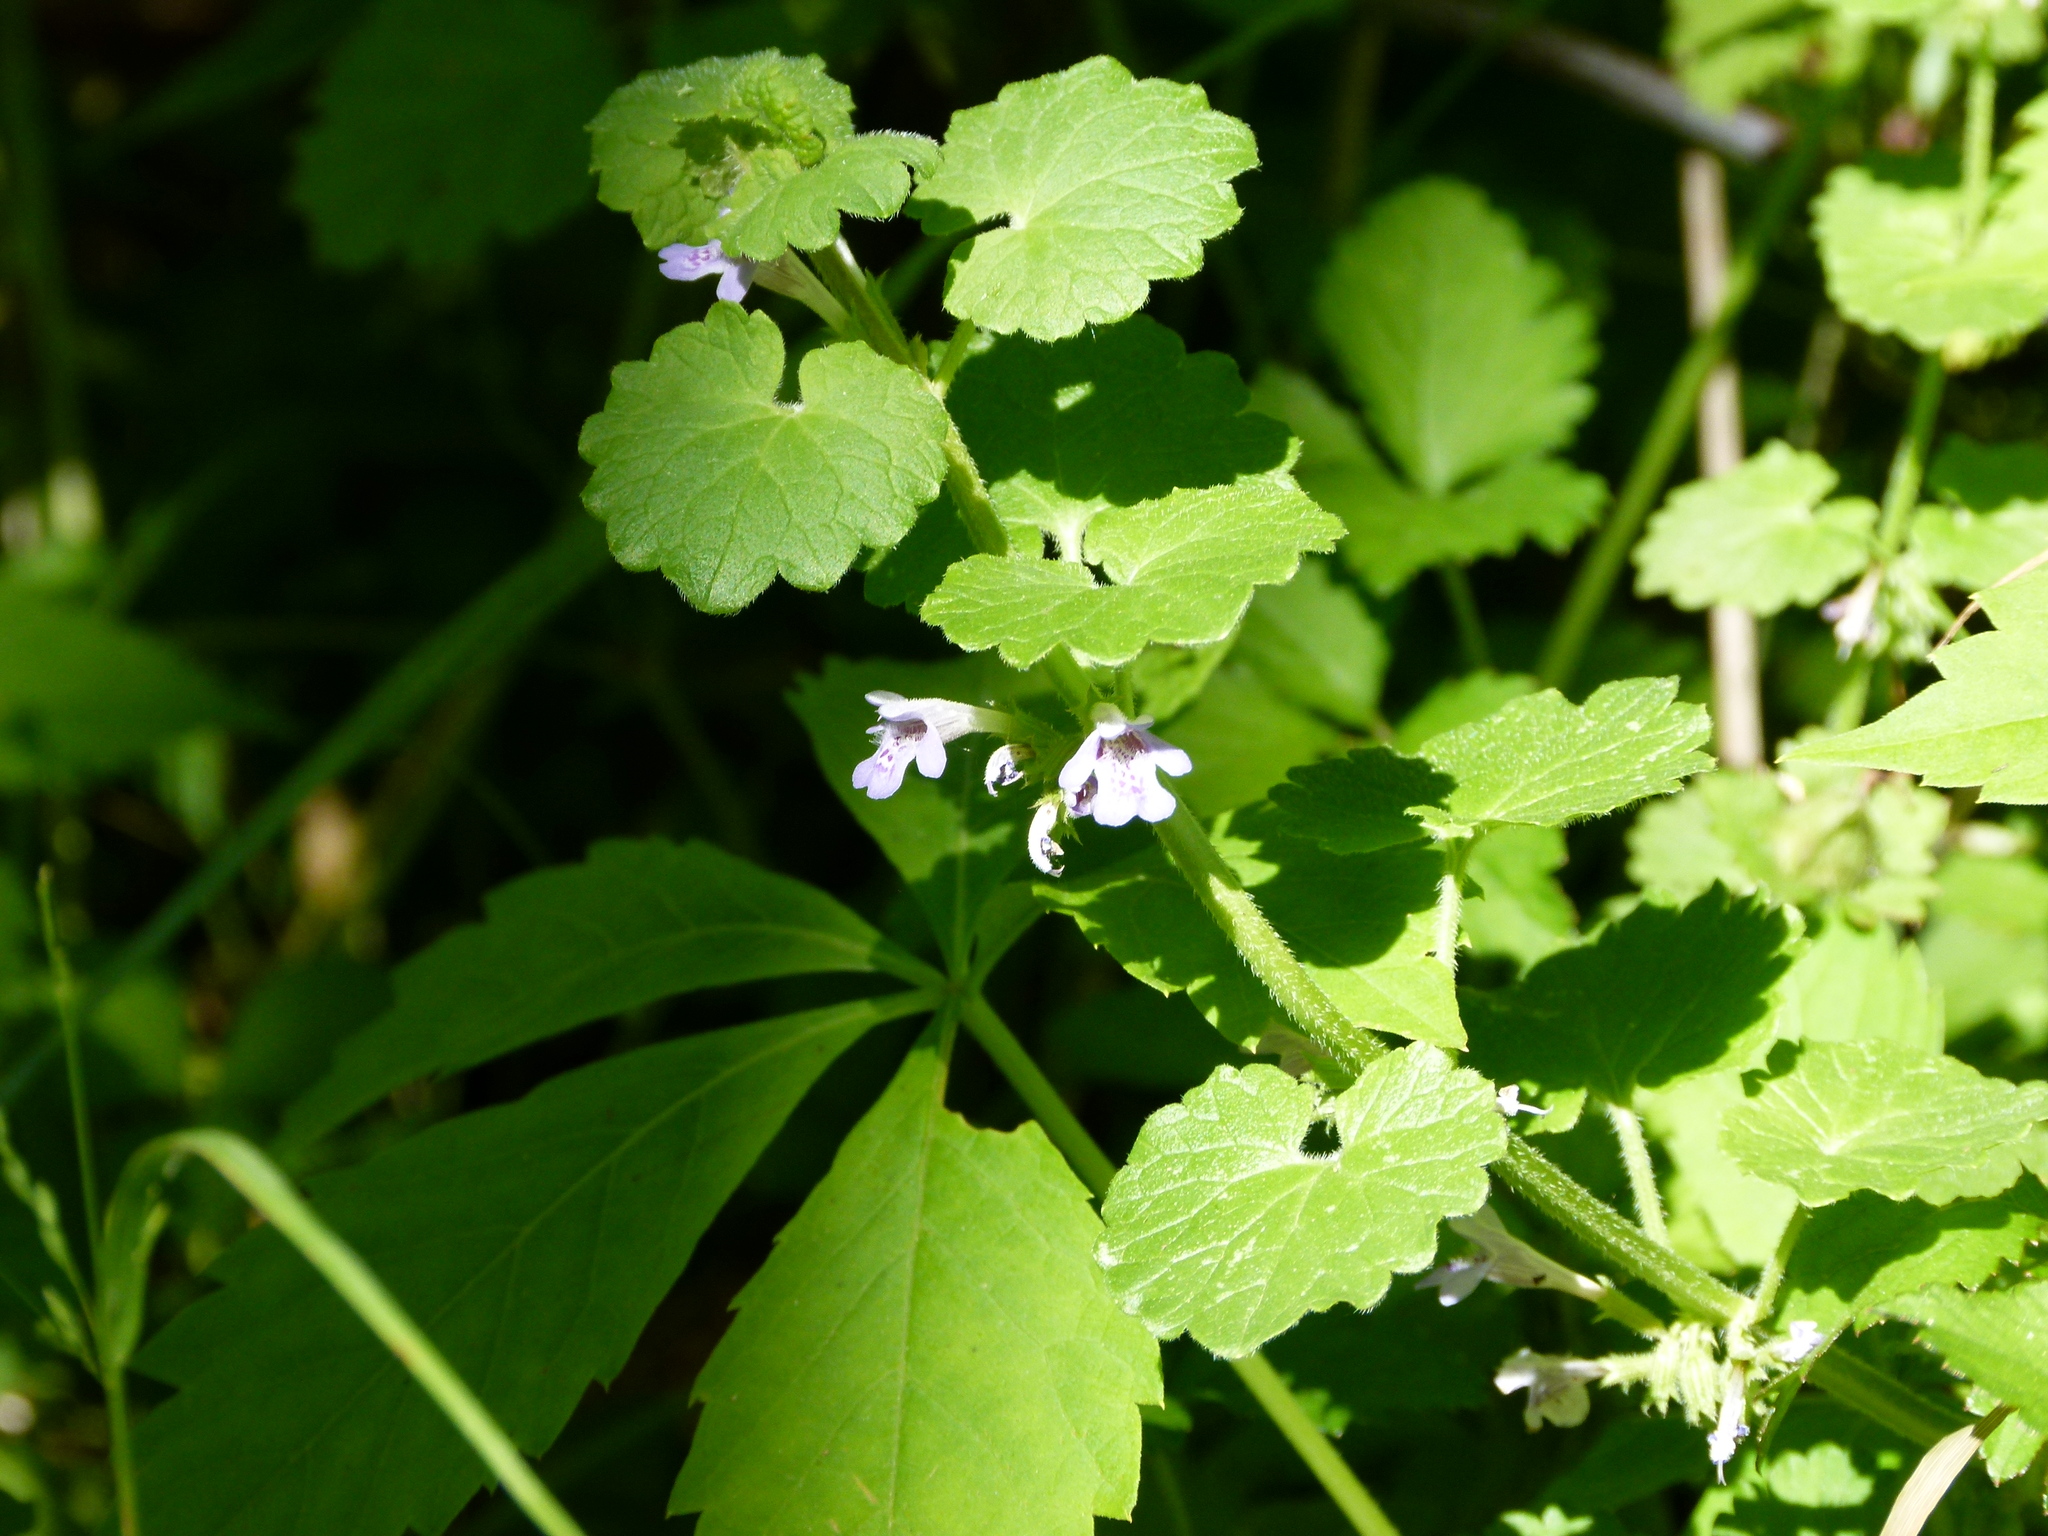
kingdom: Plantae
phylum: Tracheophyta
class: Magnoliopsida
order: Lamiales
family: Lamiaceae
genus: Glechoma
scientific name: Glechoma hederacea
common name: Ground ivy
